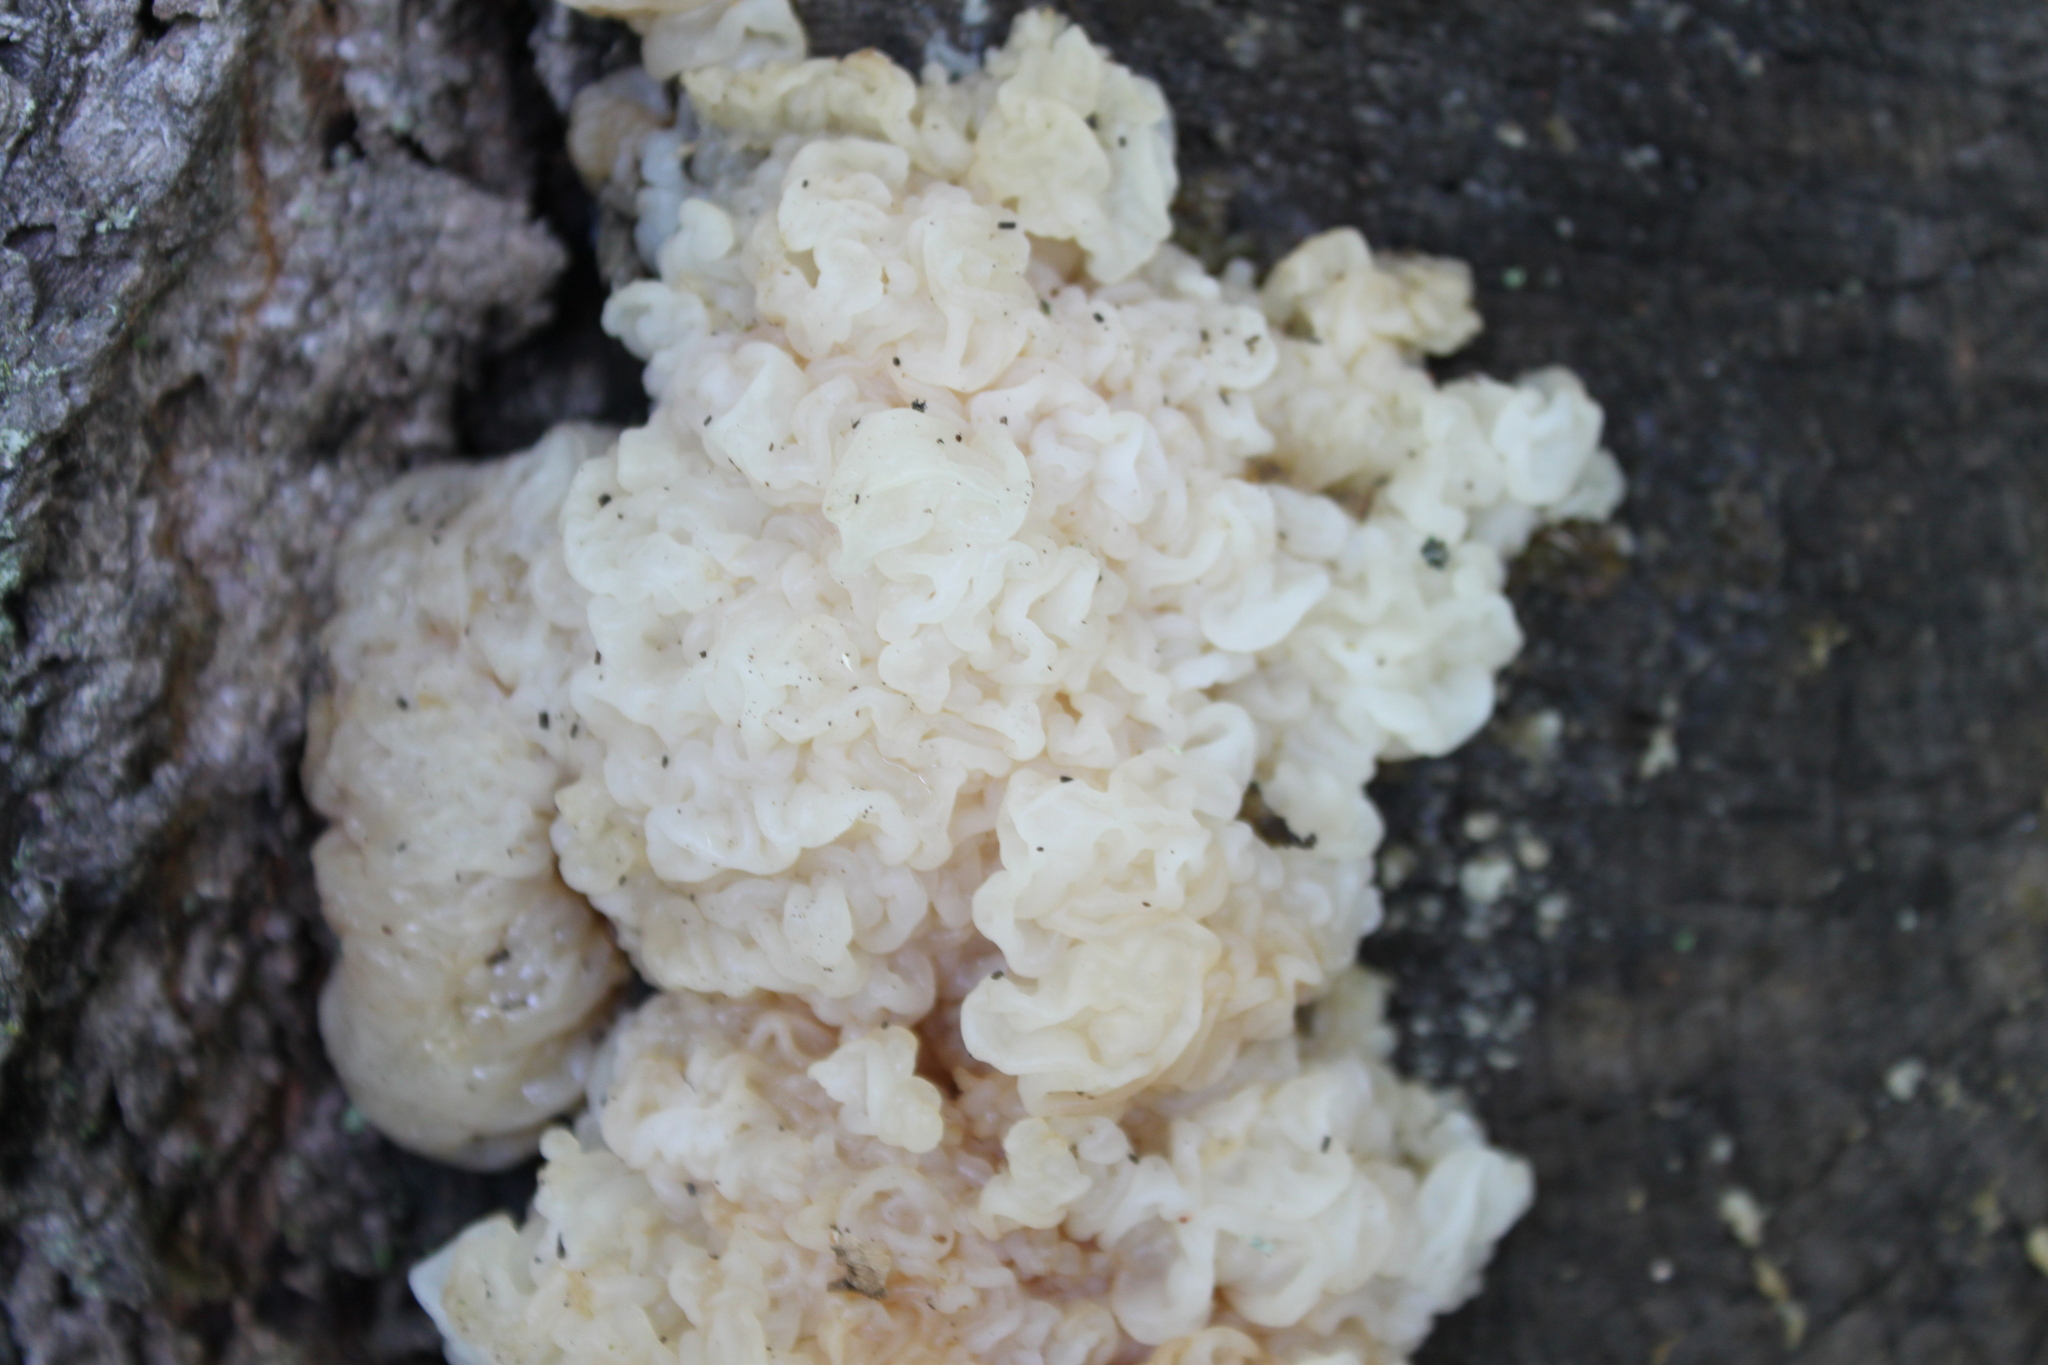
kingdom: Fungi
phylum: Basidiomycota
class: Agaricomycetes
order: Auriculariales
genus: Ductifera
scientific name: Ductifera pululahuana
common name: White jelly fungus
